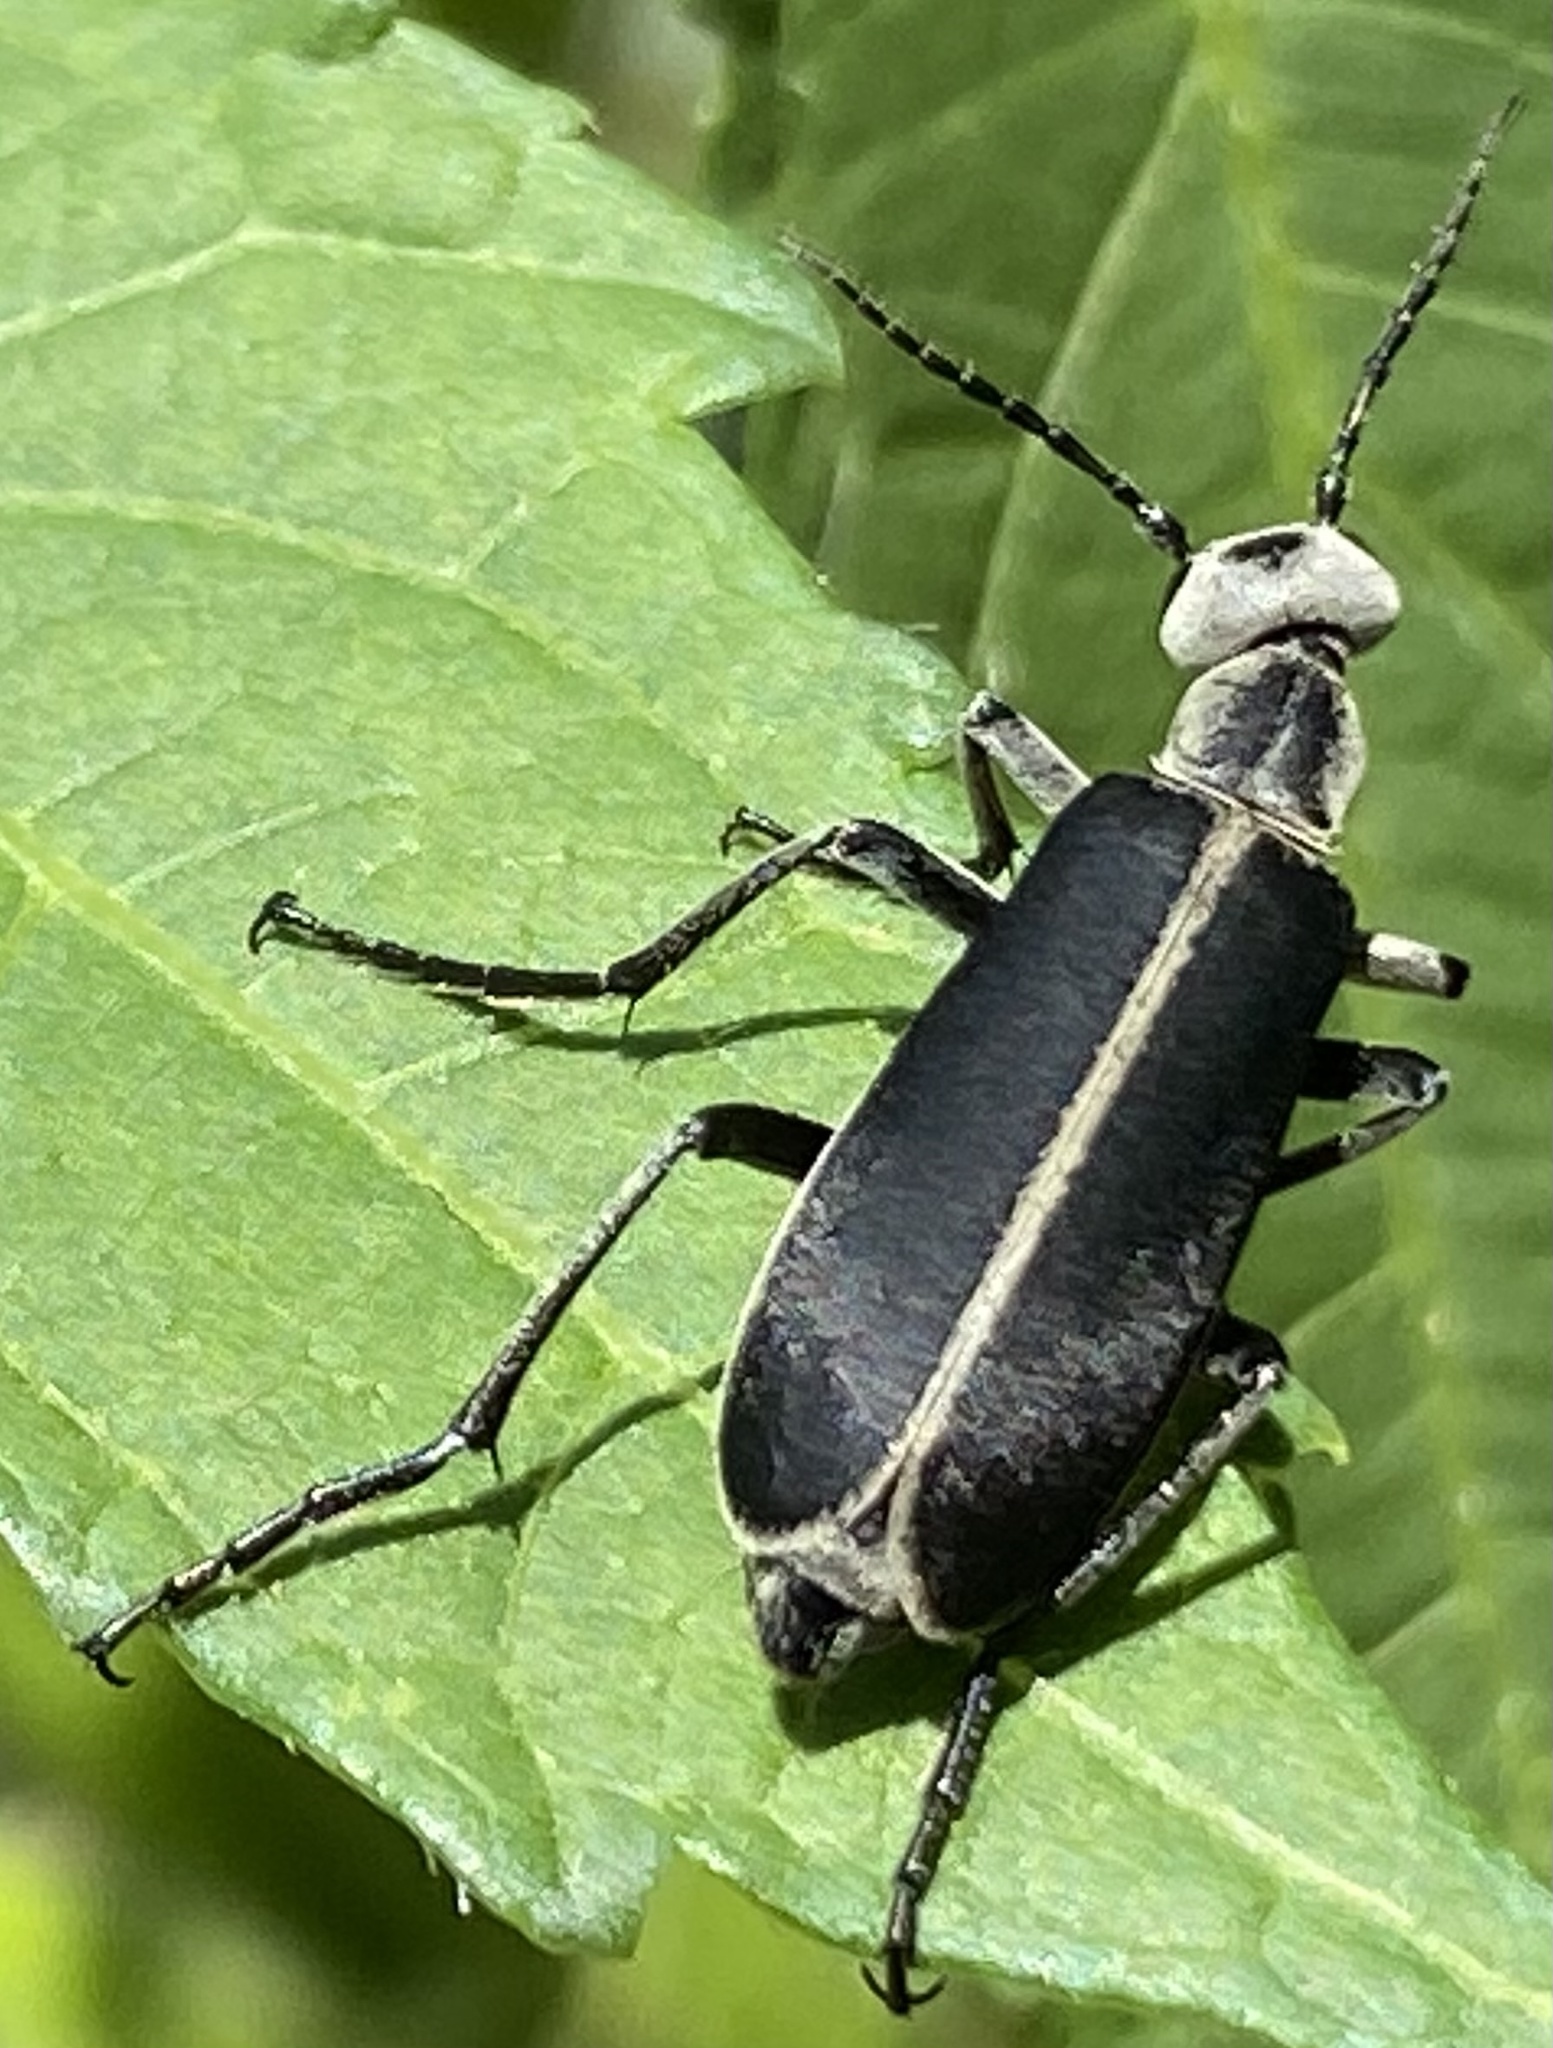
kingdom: Animalia
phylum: Arthropoda
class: Insecta
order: Coleoptera
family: Meloidae
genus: Epicauta
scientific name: Epicauta cinerea
